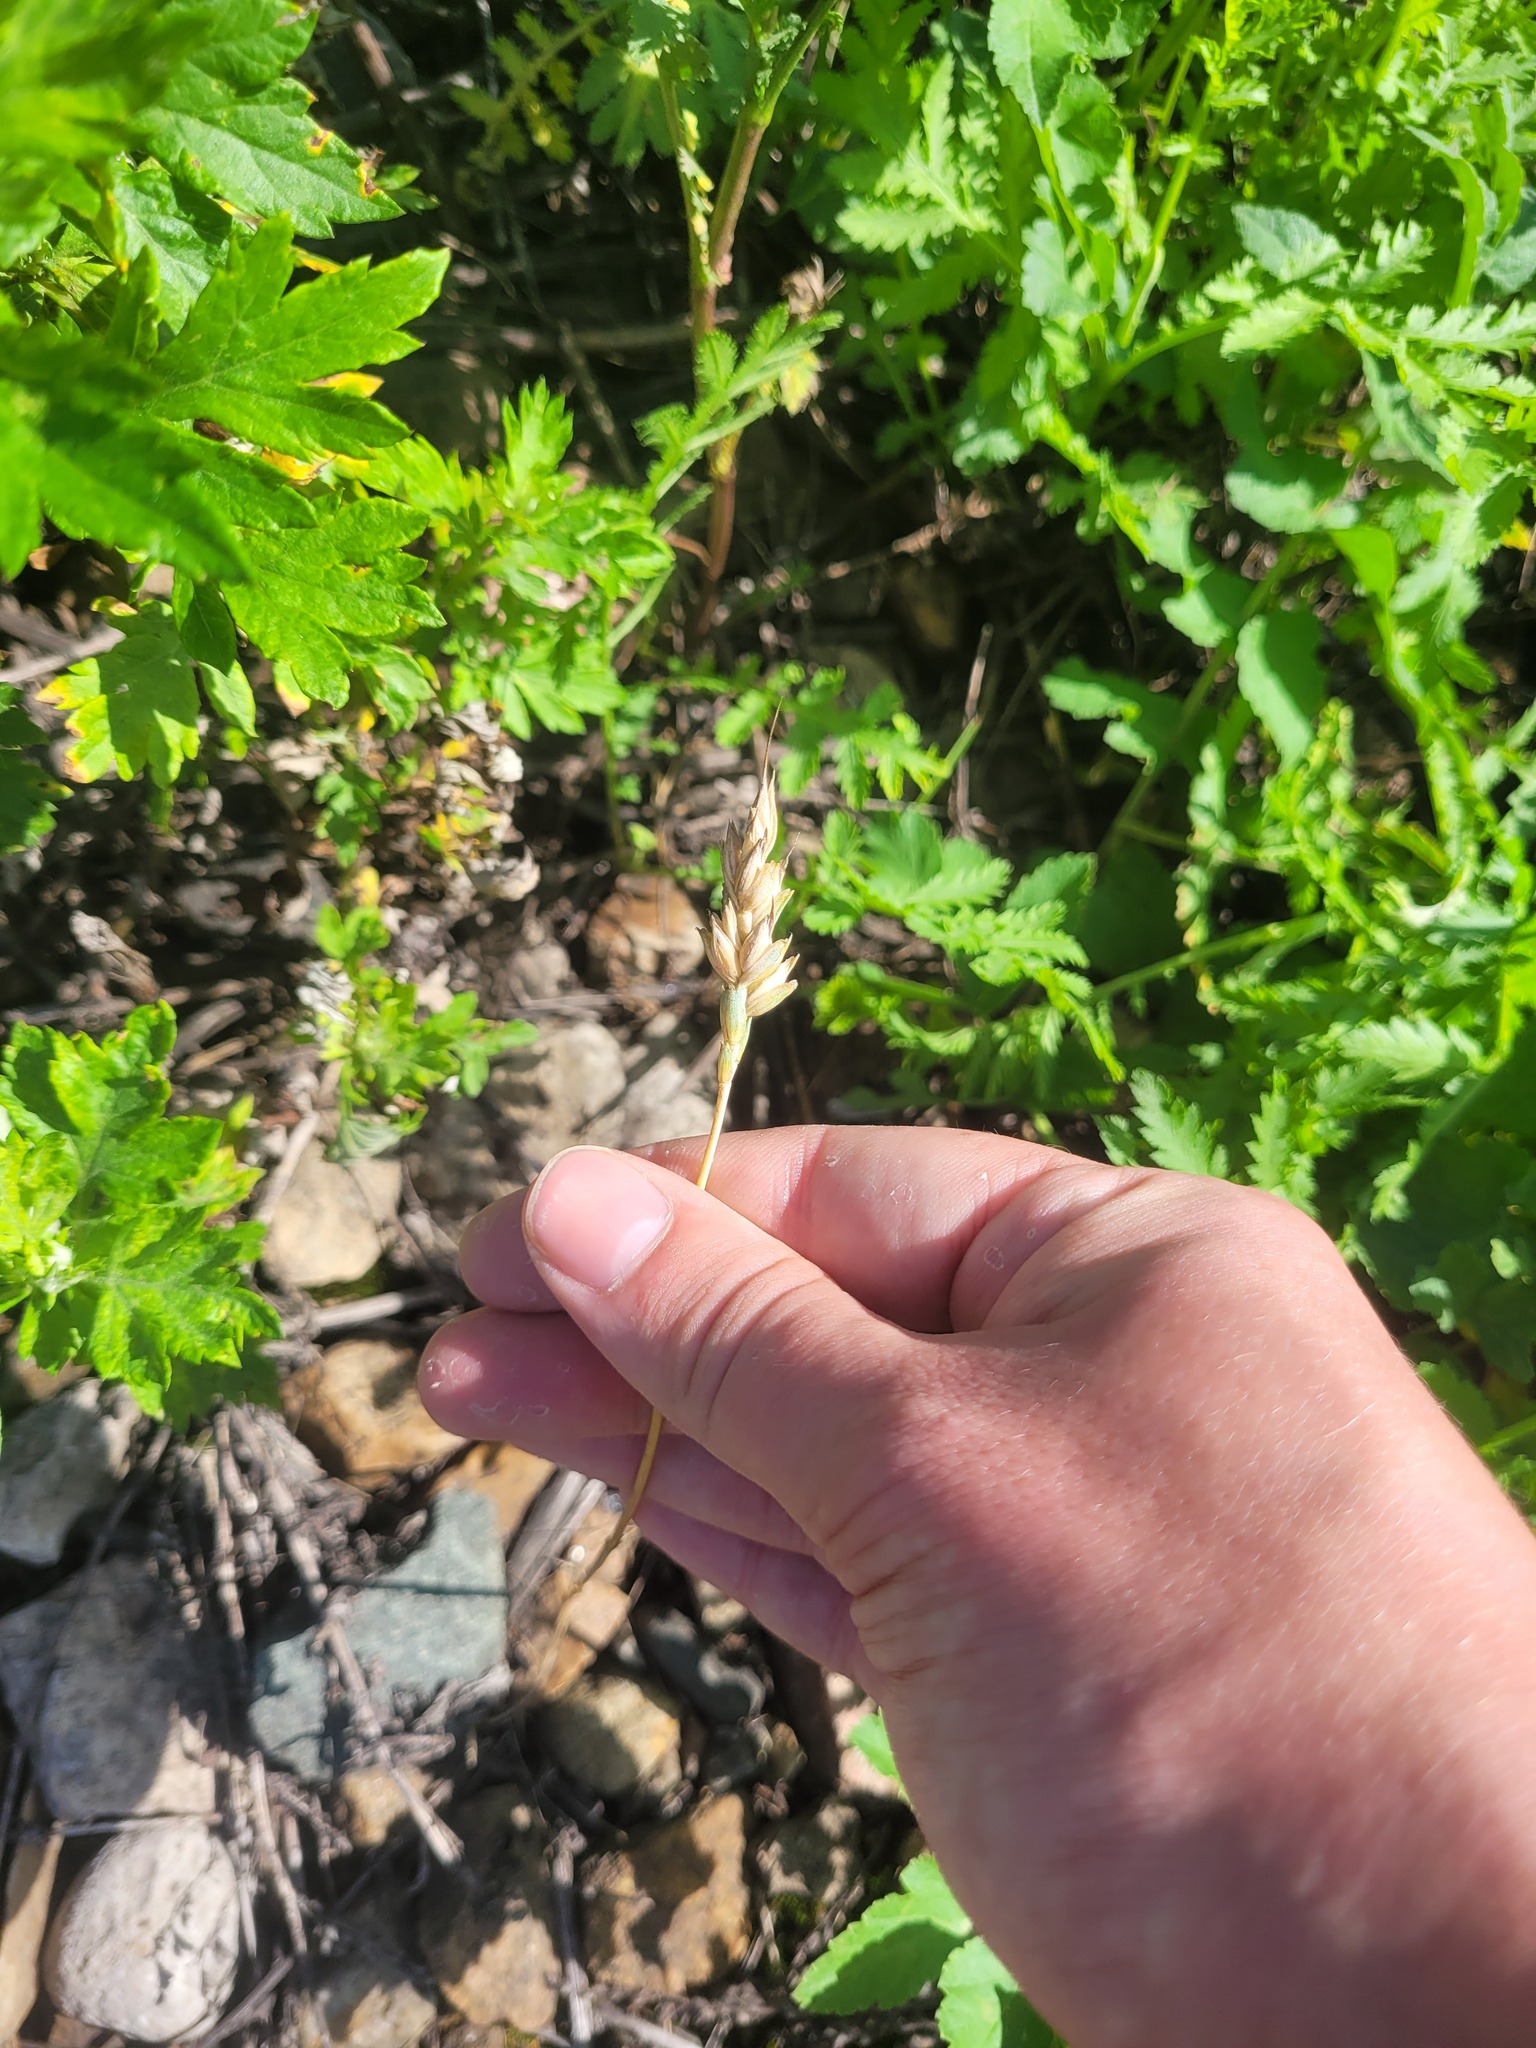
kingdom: Plantae
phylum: Tracheophyta
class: Liliopsida
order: Poales
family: Poaceae
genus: Triticum
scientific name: Triticum aestivum
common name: Common wheat
